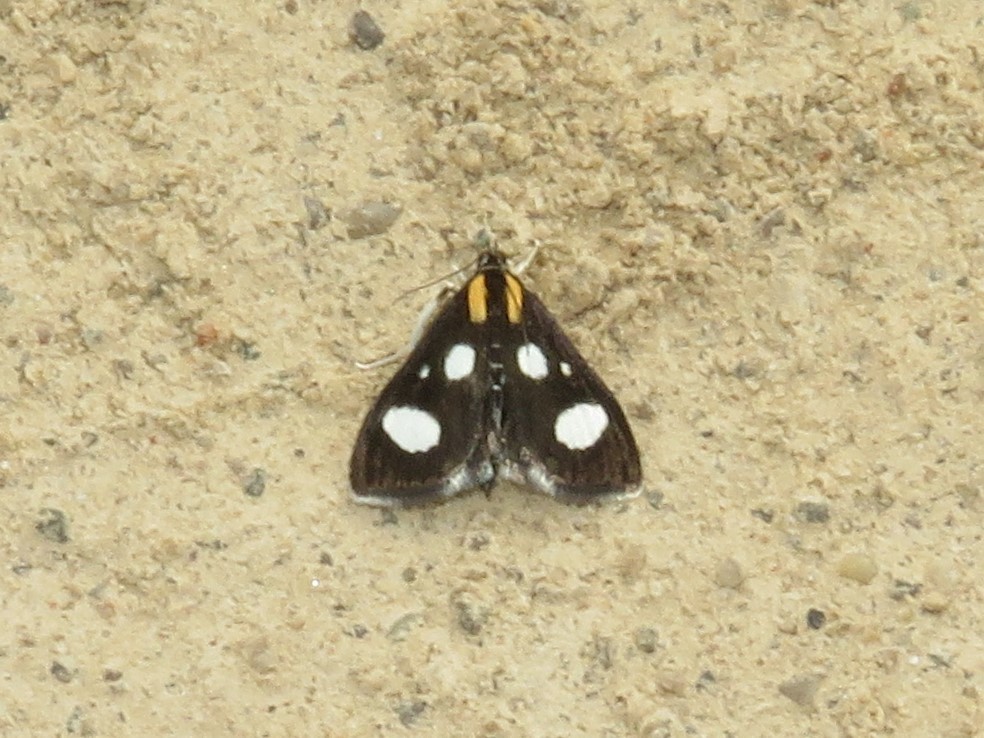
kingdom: Animalia
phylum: Arthropoda
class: Insecta
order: Lepidoptera
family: Crambidae
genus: Anania
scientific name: Anania funebris
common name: White-spotted sable moth
